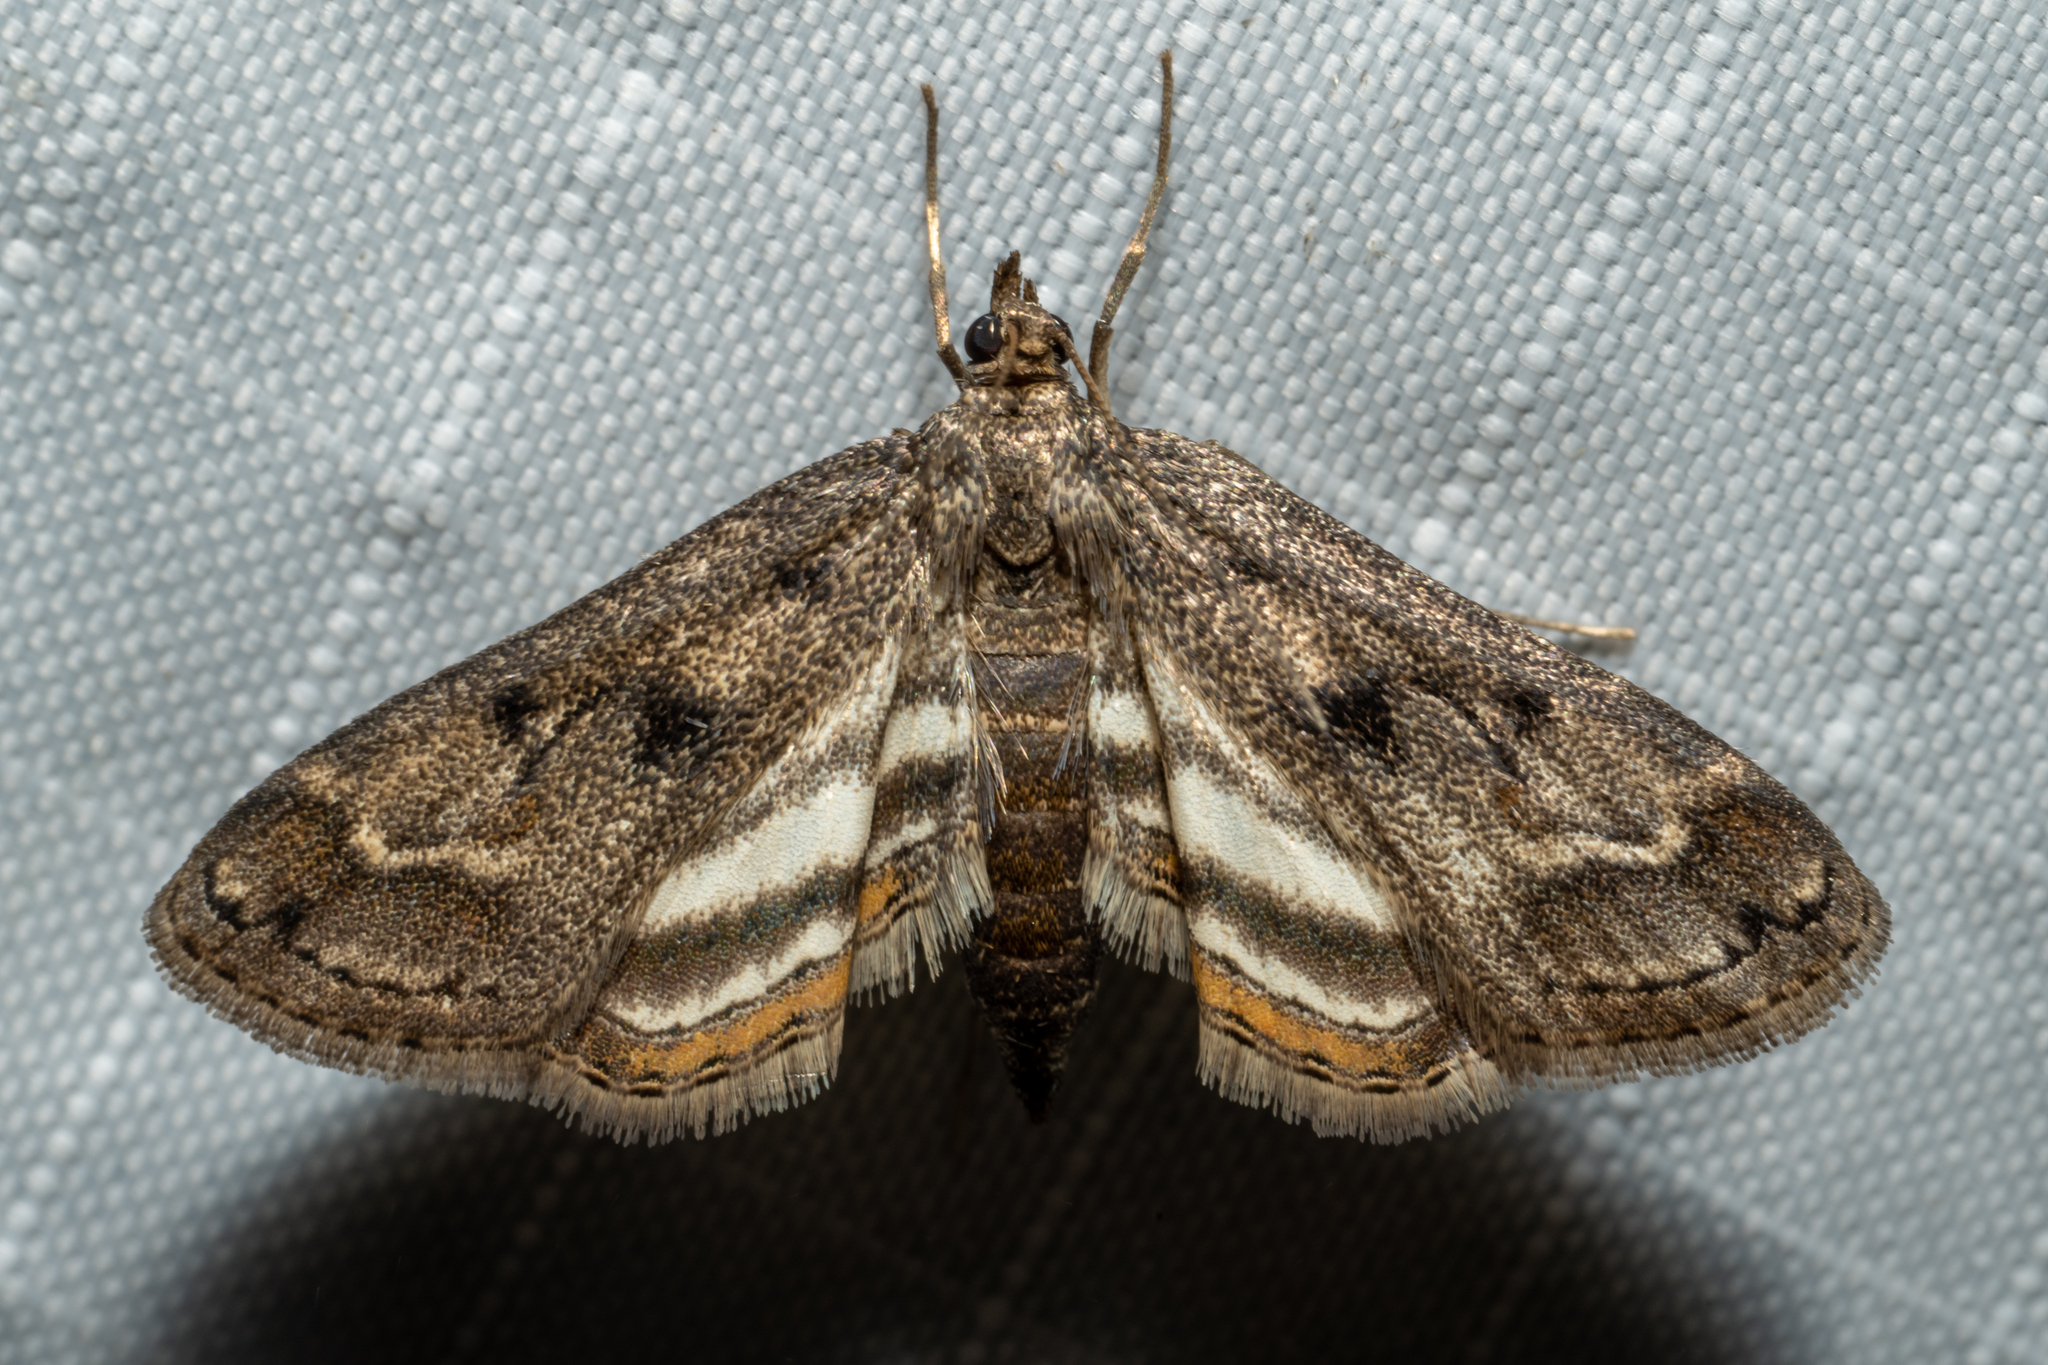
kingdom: Animalia
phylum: Arthropoda
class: Insecta
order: Lepidoptera
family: Crambidae
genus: Parapoynx
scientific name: Parapoynx obscuralis
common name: American china-mark
